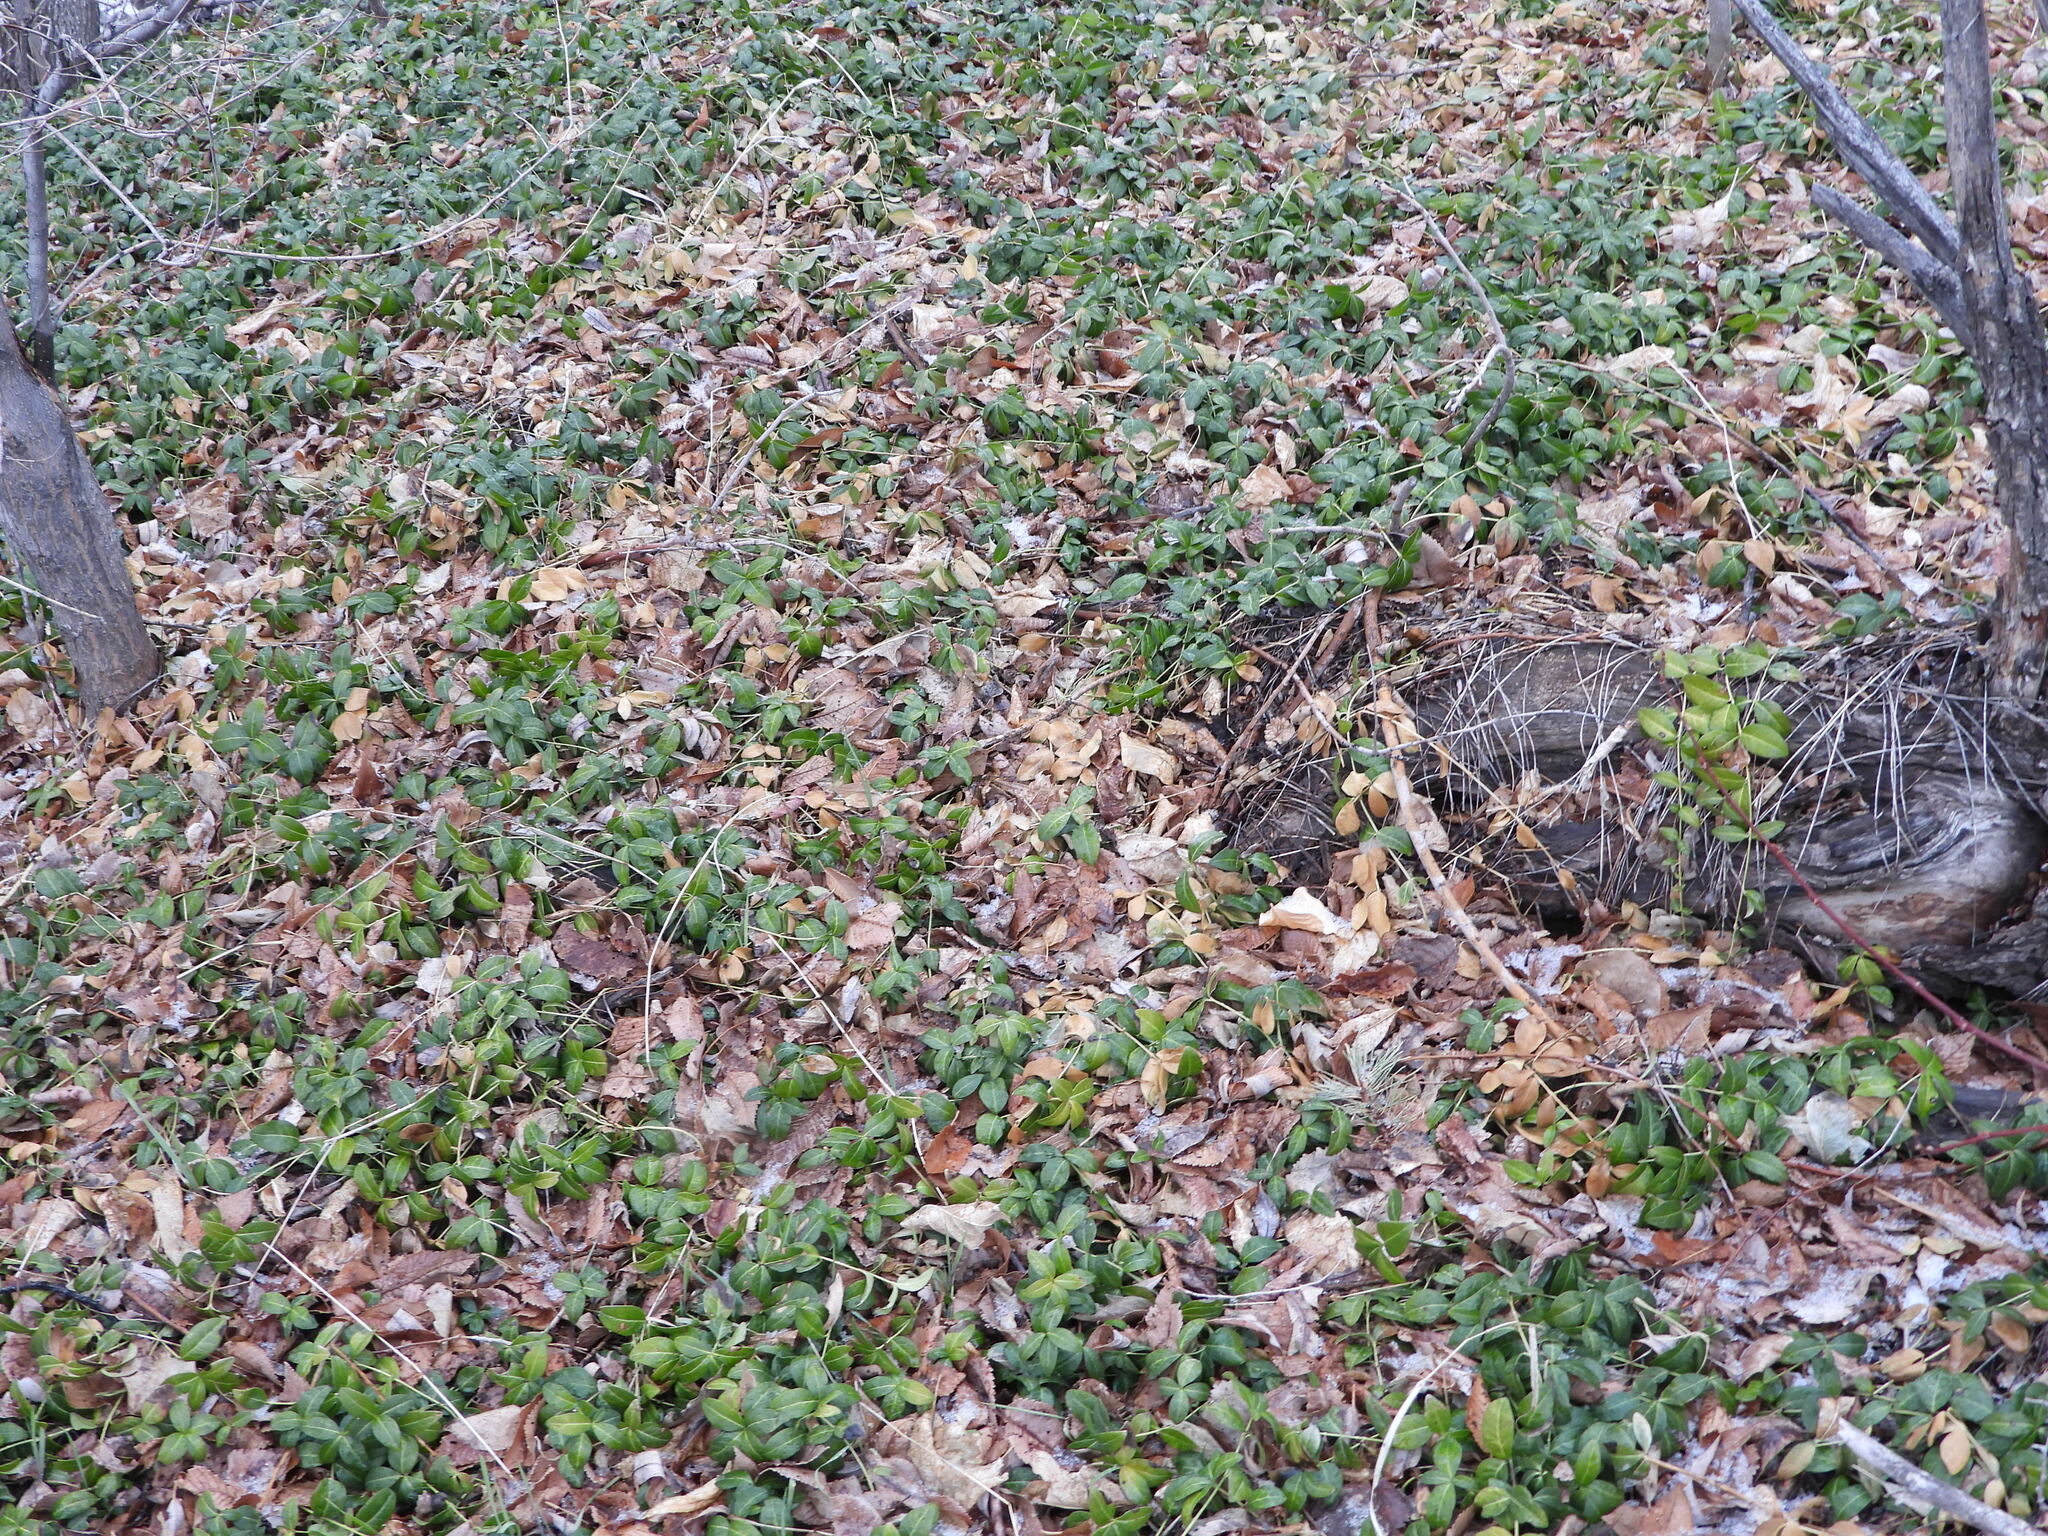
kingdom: Plantae
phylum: Tracheophyta
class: Magnoliopsida
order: Gentianales
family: Apocynaceae
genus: Vinca
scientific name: Vinca minor
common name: Lesser periwinkle
